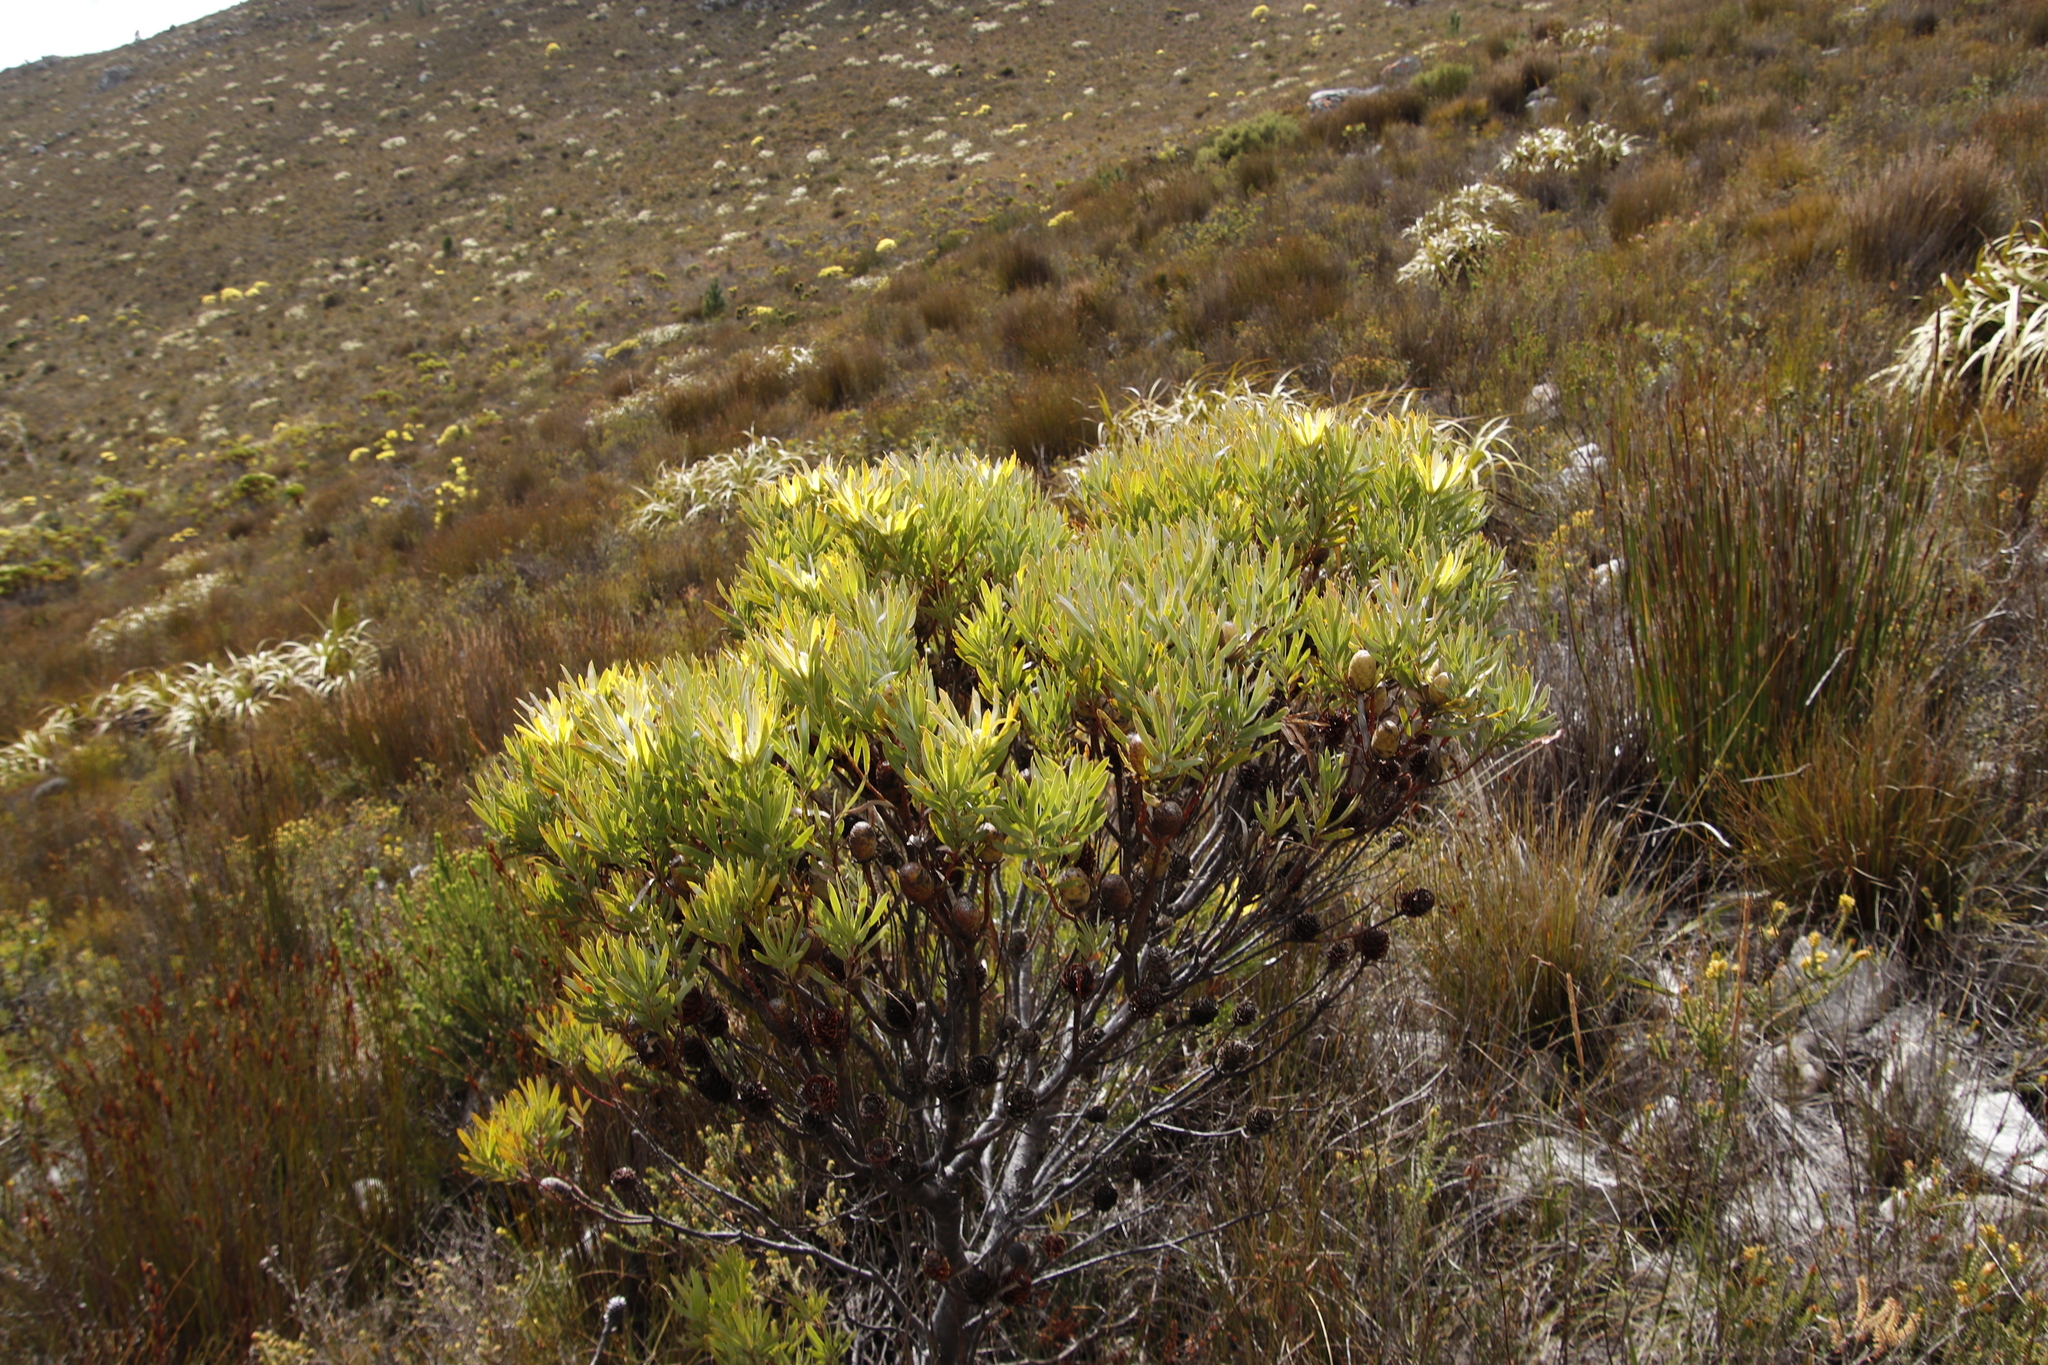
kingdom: Plantae
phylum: Tracheophyta
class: Magnoliopsida
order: Proteales
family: Proteaceae
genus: Leucadendron
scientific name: Leucadendron
